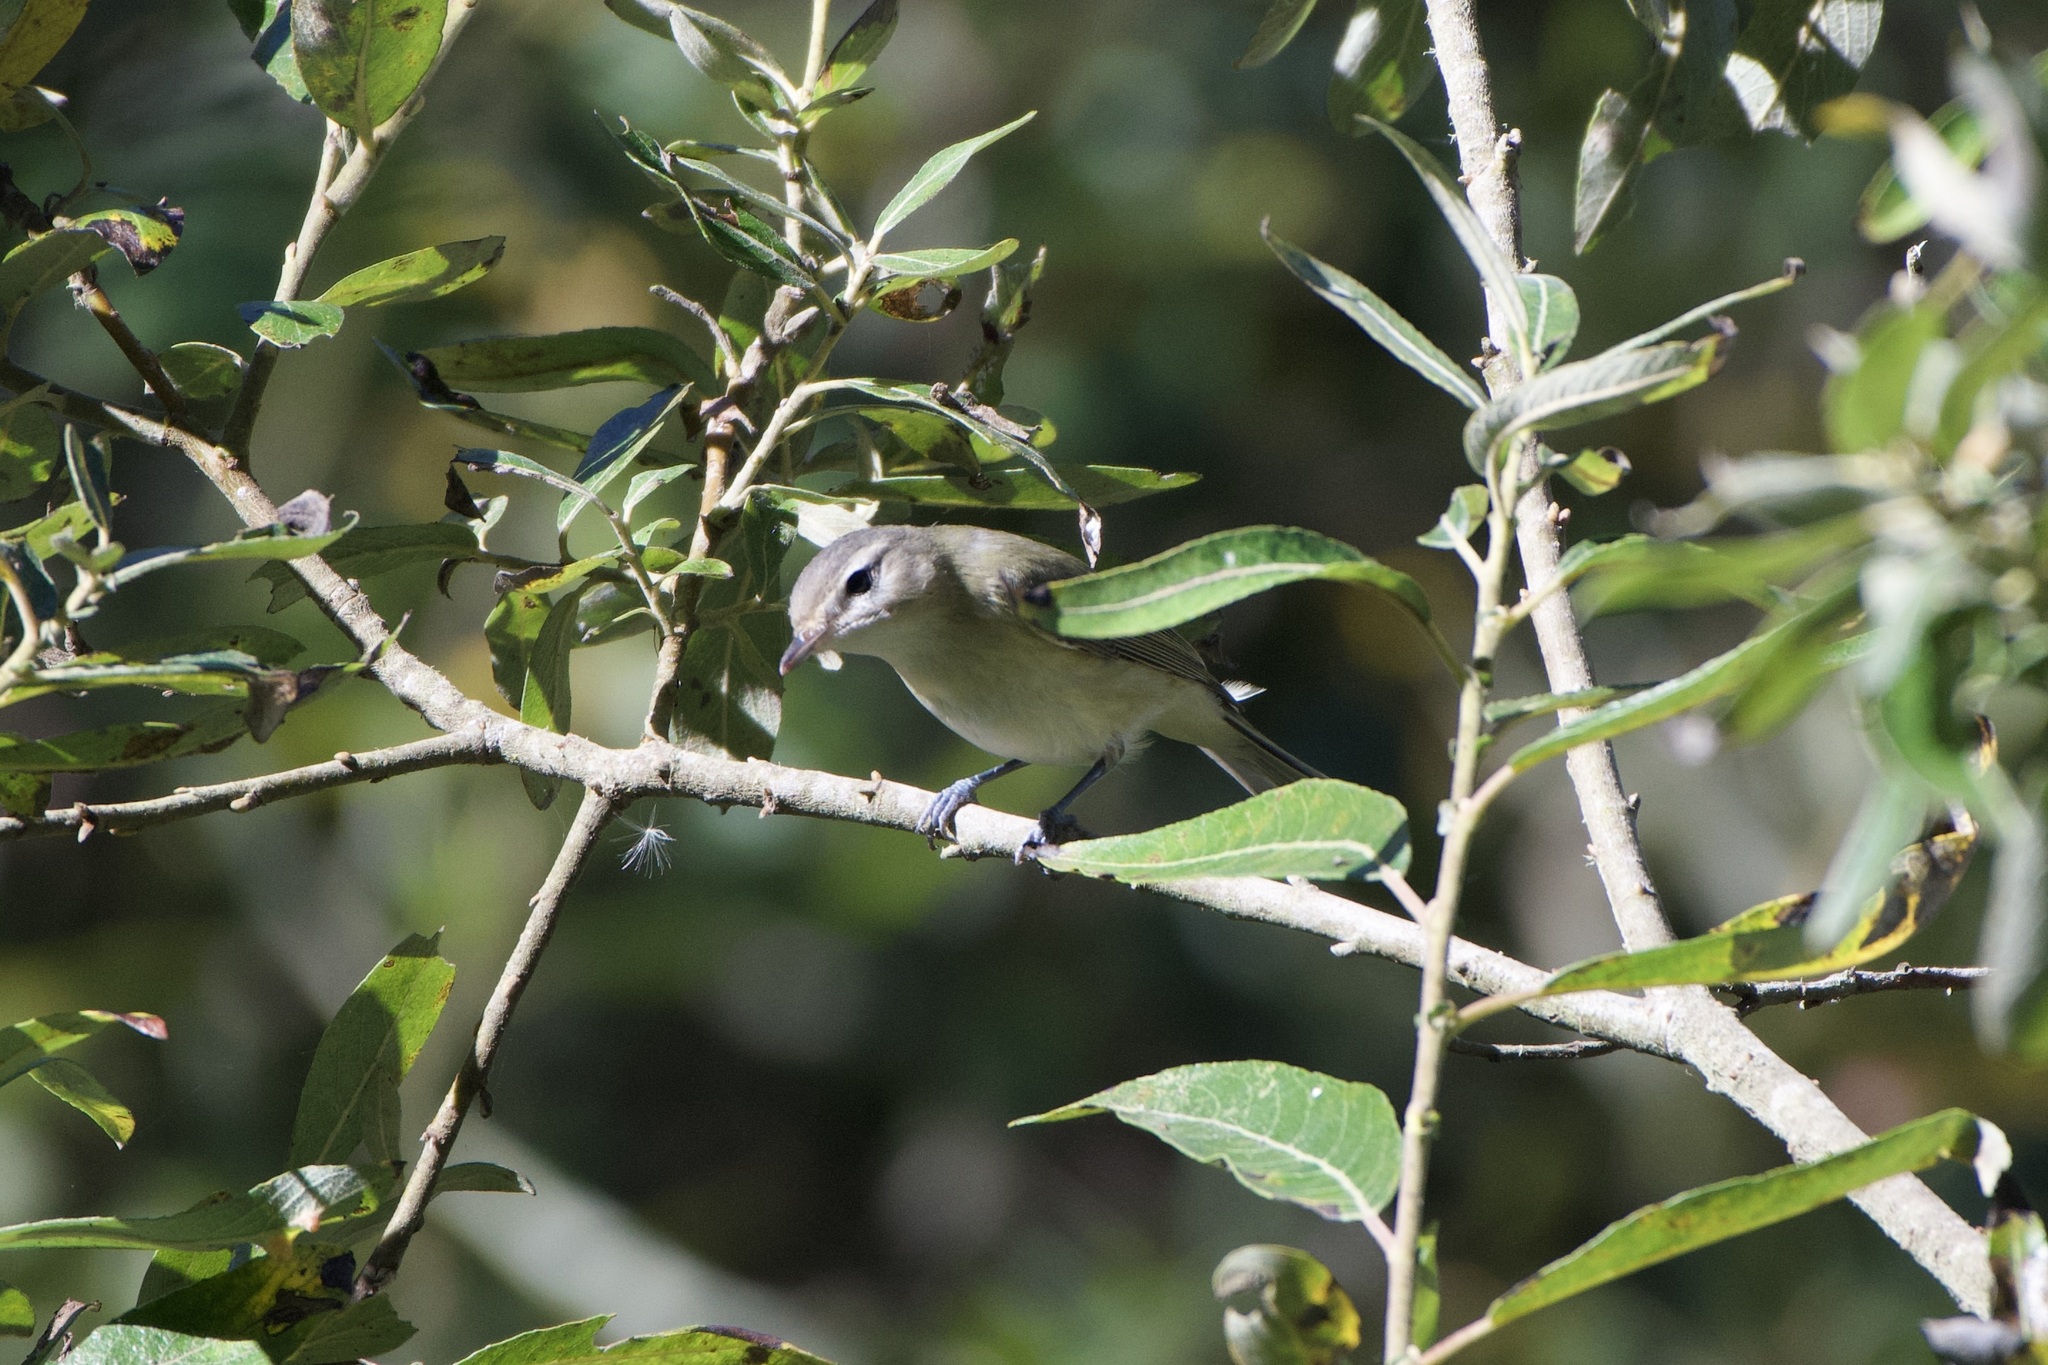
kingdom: Animalia
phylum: Chordata
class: Aves
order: Passeriformes
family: Vireonidae
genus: Vireo
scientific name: Vireo gilvus
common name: Warbling vireo
